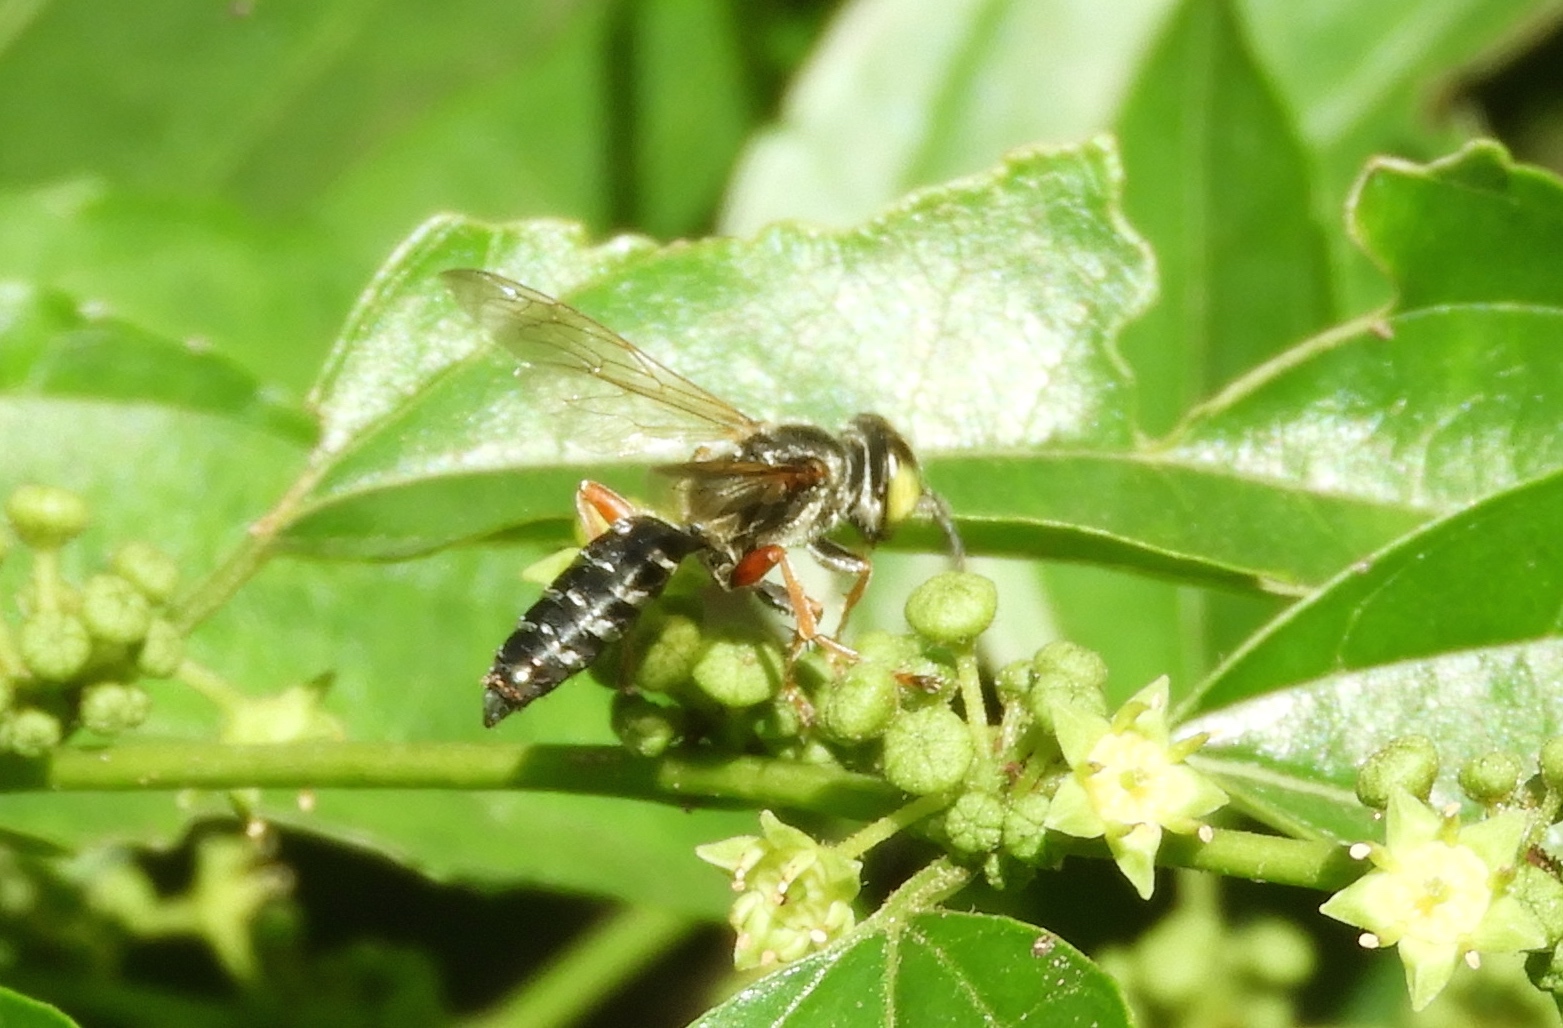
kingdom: Animalia
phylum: Arthropoda
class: Insecta
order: Hymenoptera
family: Crabronidae
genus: Tachytes
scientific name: Tachytes
